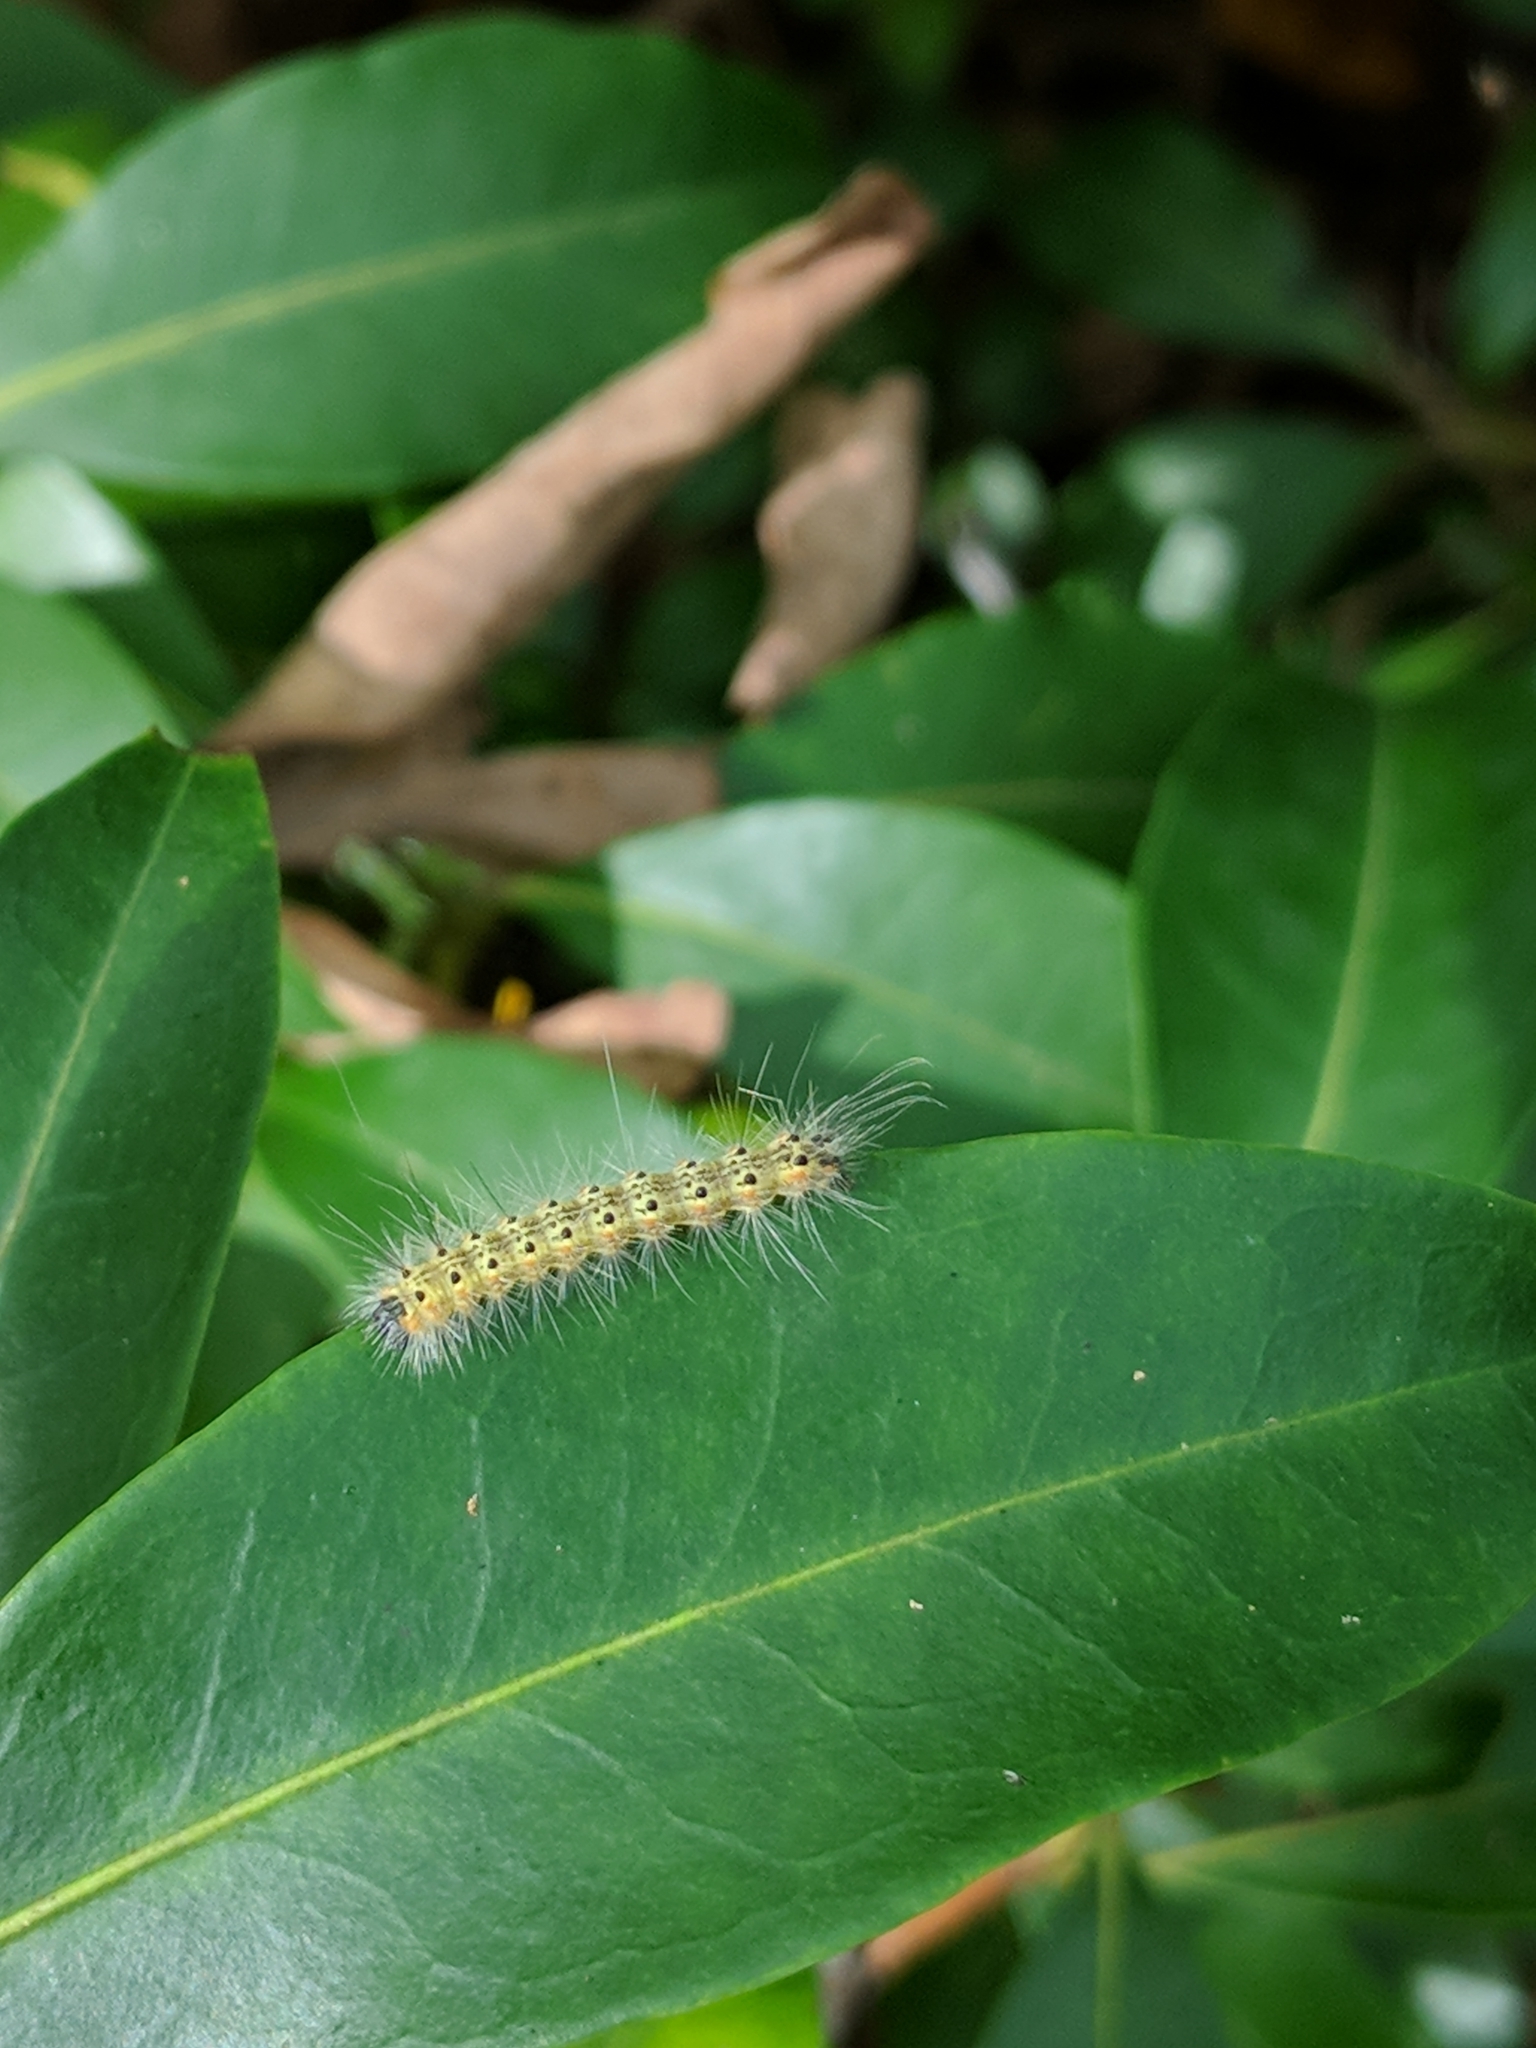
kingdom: Animalia
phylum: Arthropoda
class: Insecta
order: Lepidoptera
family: Erebidae
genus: Hyphantria
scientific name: Hyphantria cunea
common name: American white moth
